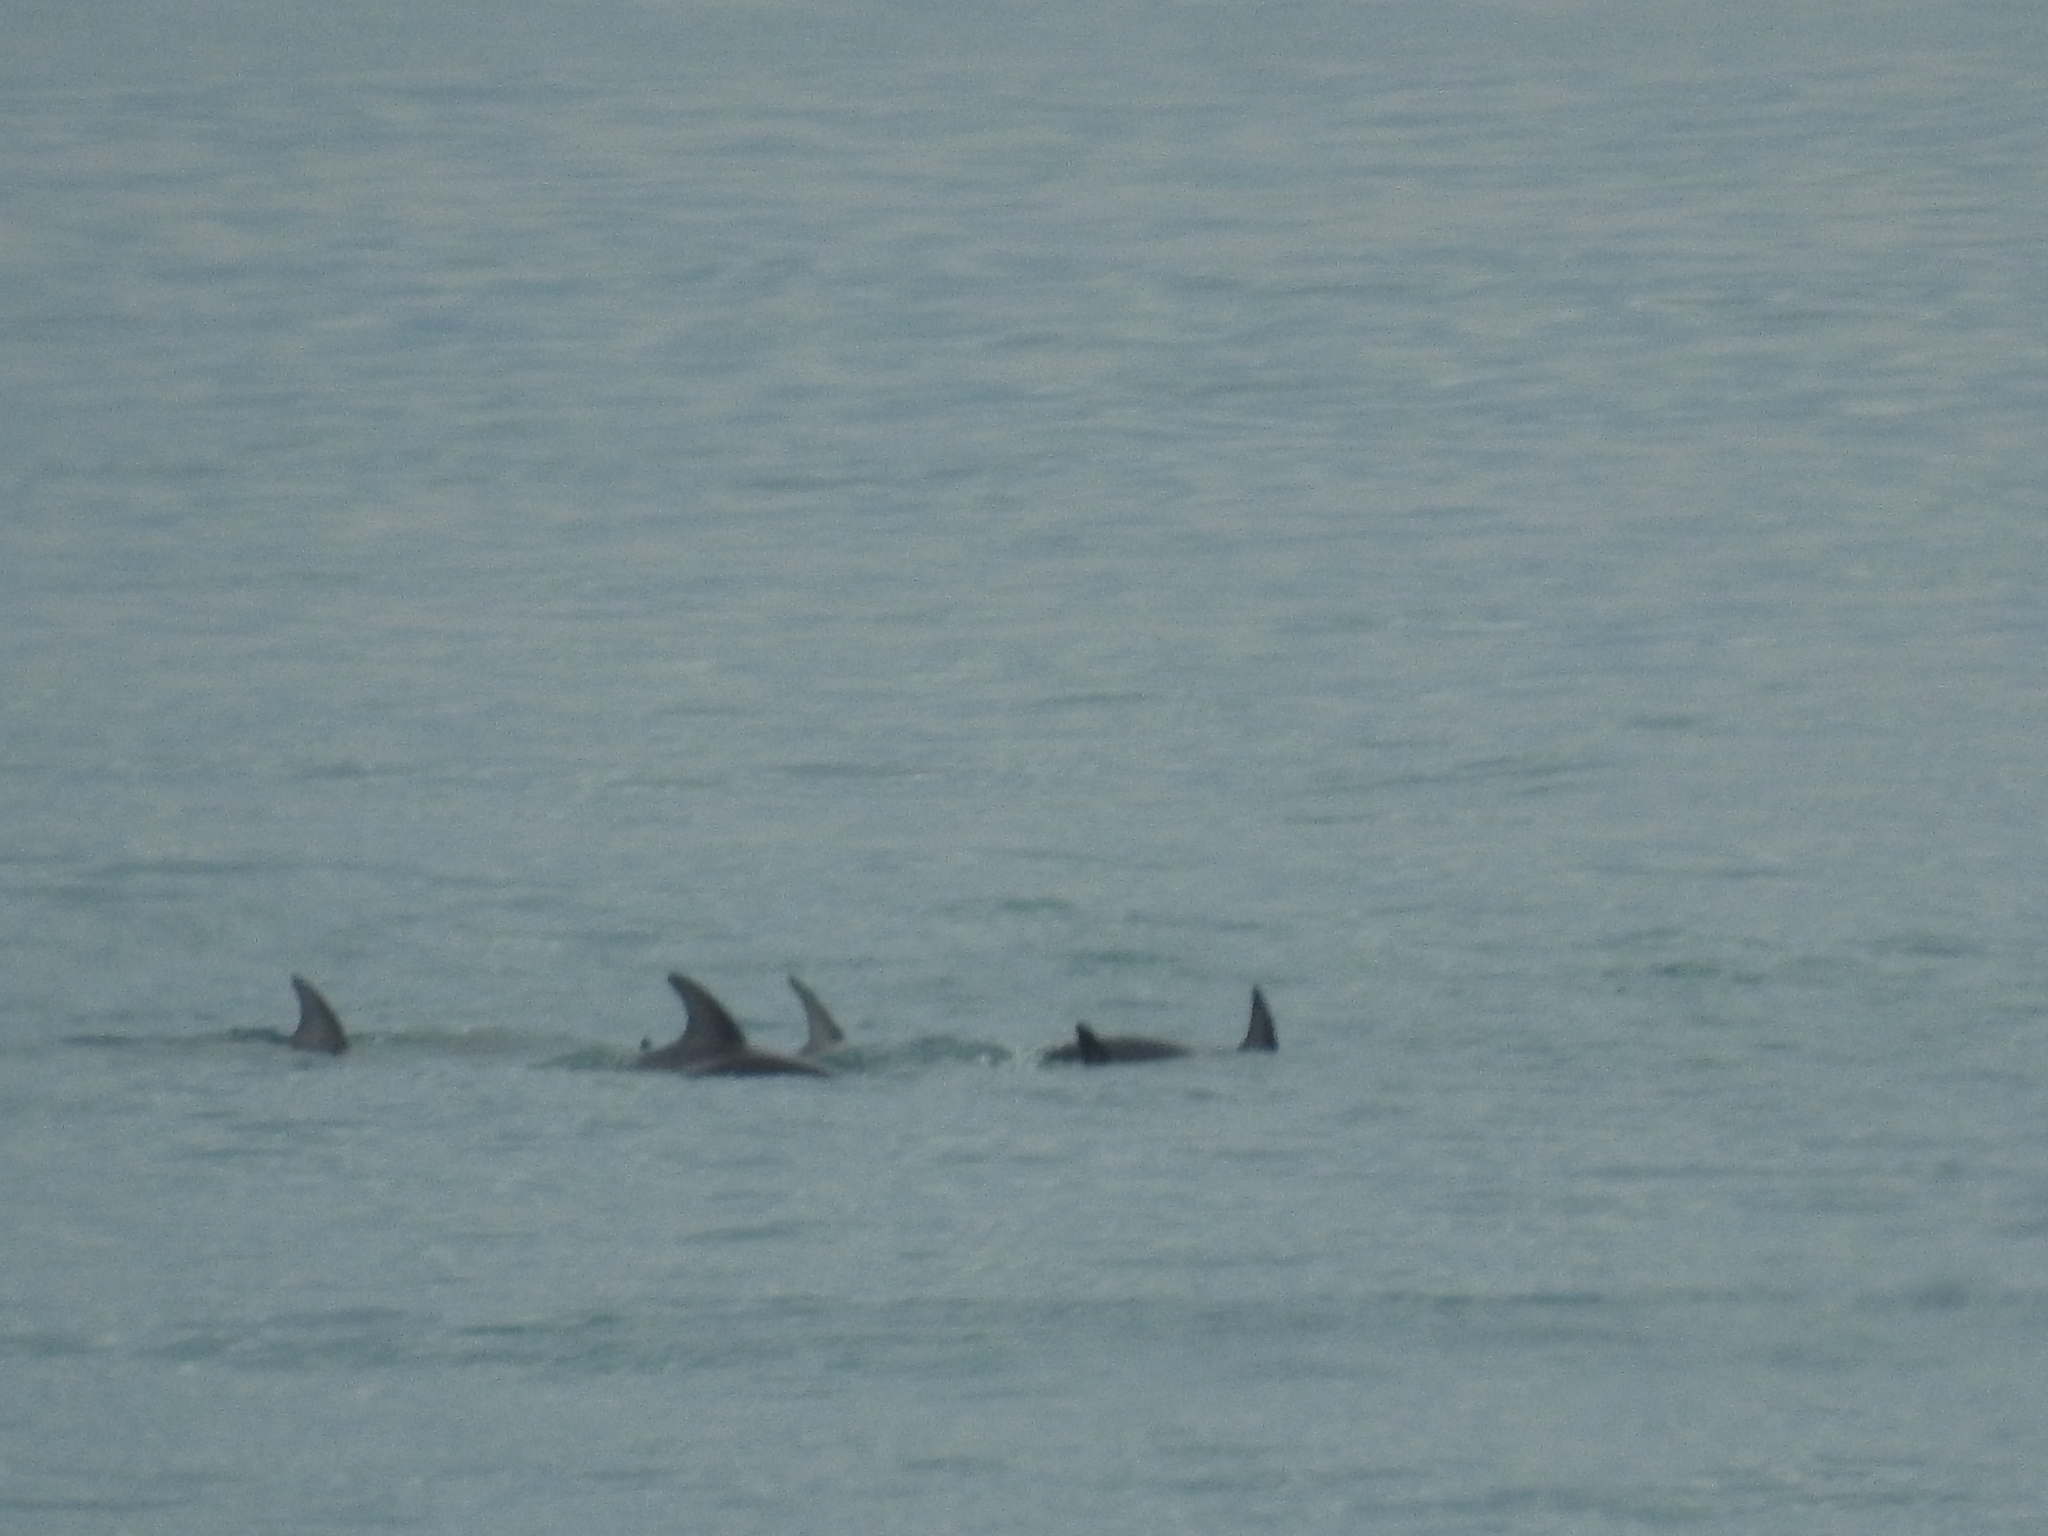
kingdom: Animalia
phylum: Chordata
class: Mammalia
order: Cetacea
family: Delphinidae
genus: Lagenorhynchus
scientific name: Lagenorhynchus obscurus
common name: Dusky dolphin
